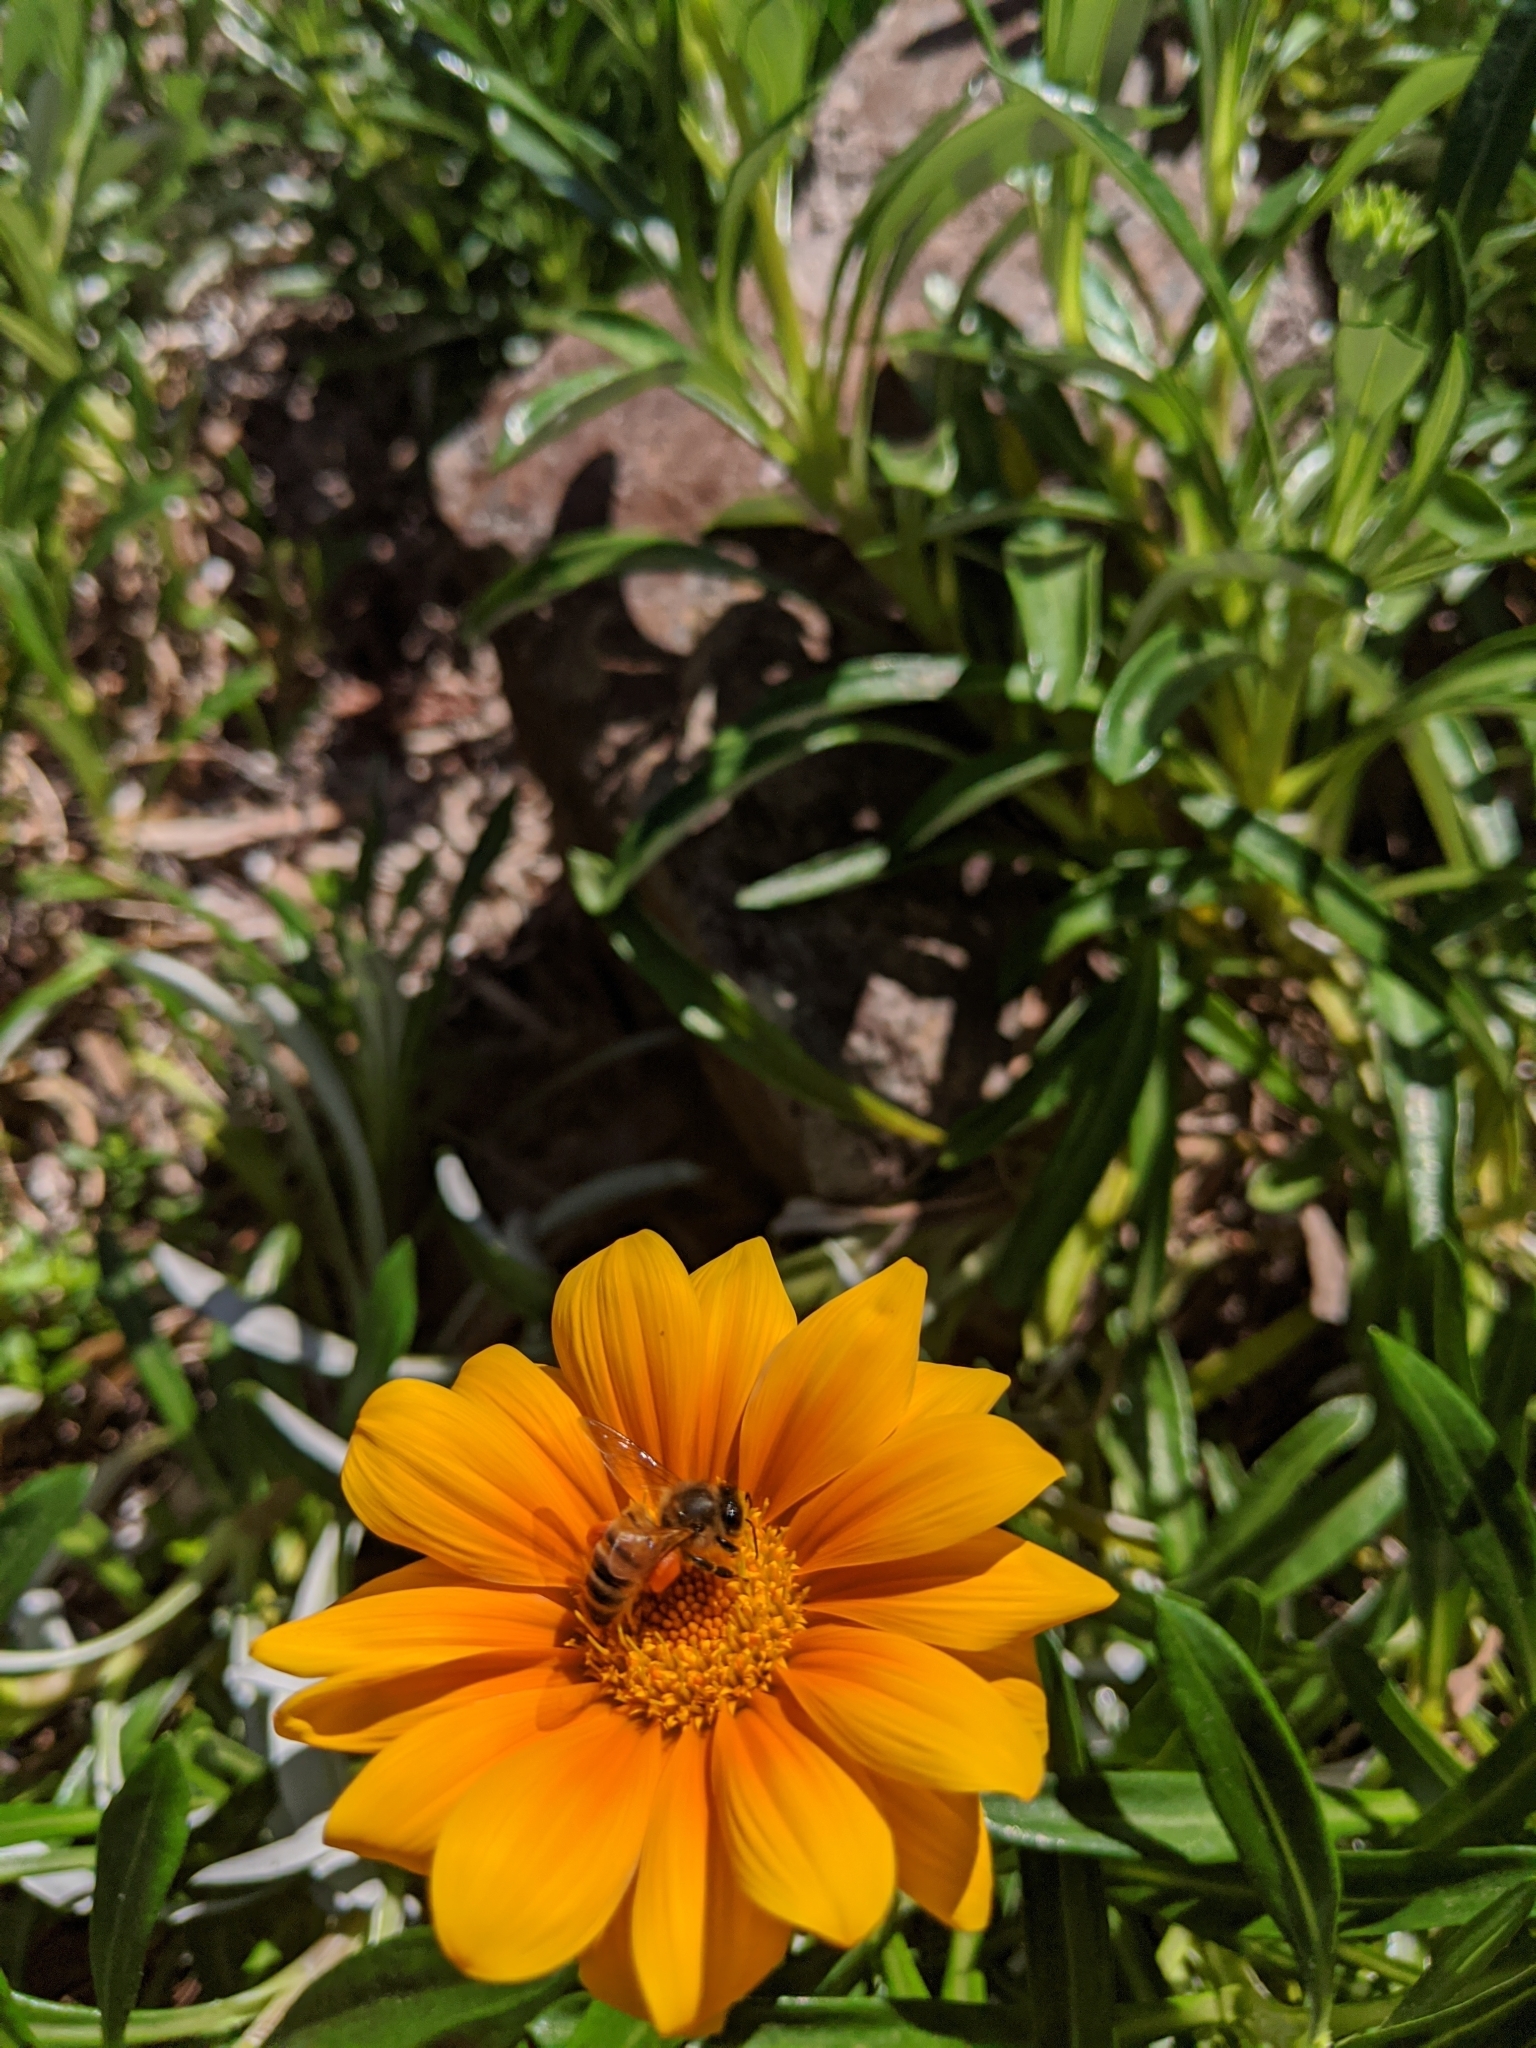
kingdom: Animalia
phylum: Arthropoda
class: Insecta
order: Hymenoptera
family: Apidae
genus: Apis
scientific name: Apis mellifera
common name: Honey bee
